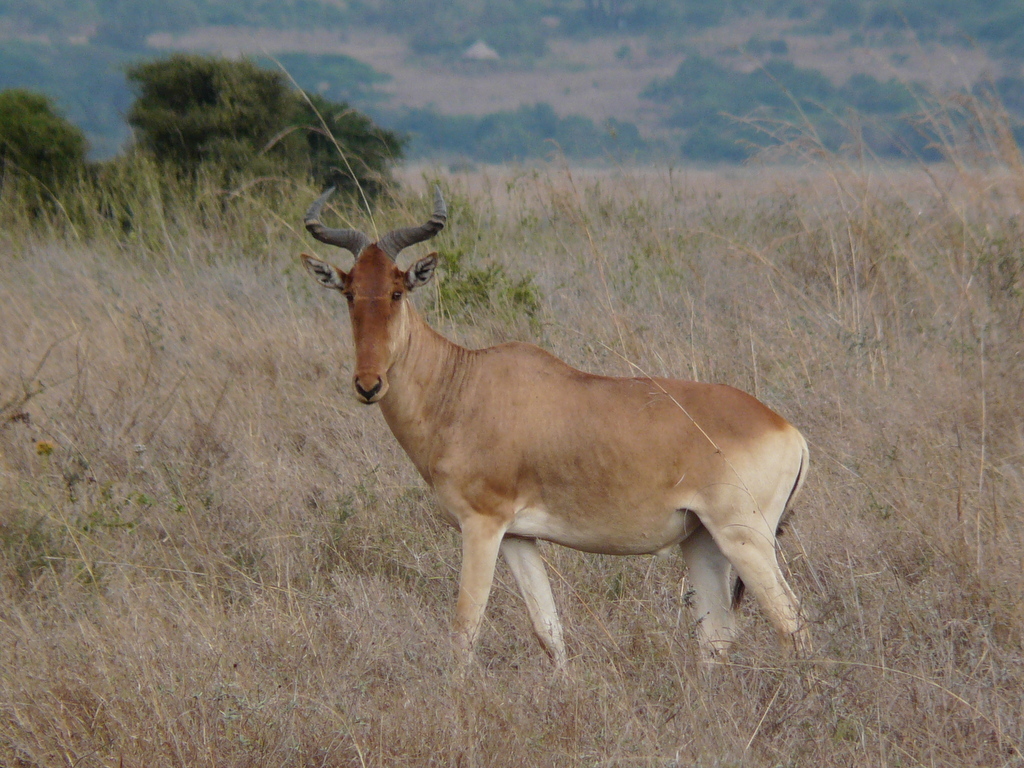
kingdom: Animalia
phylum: Chordata
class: Mammalia
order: Artiodactyla
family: Bovidae
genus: Alcelaphus
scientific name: Alcelaphus buselaphus
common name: Hartebeest
